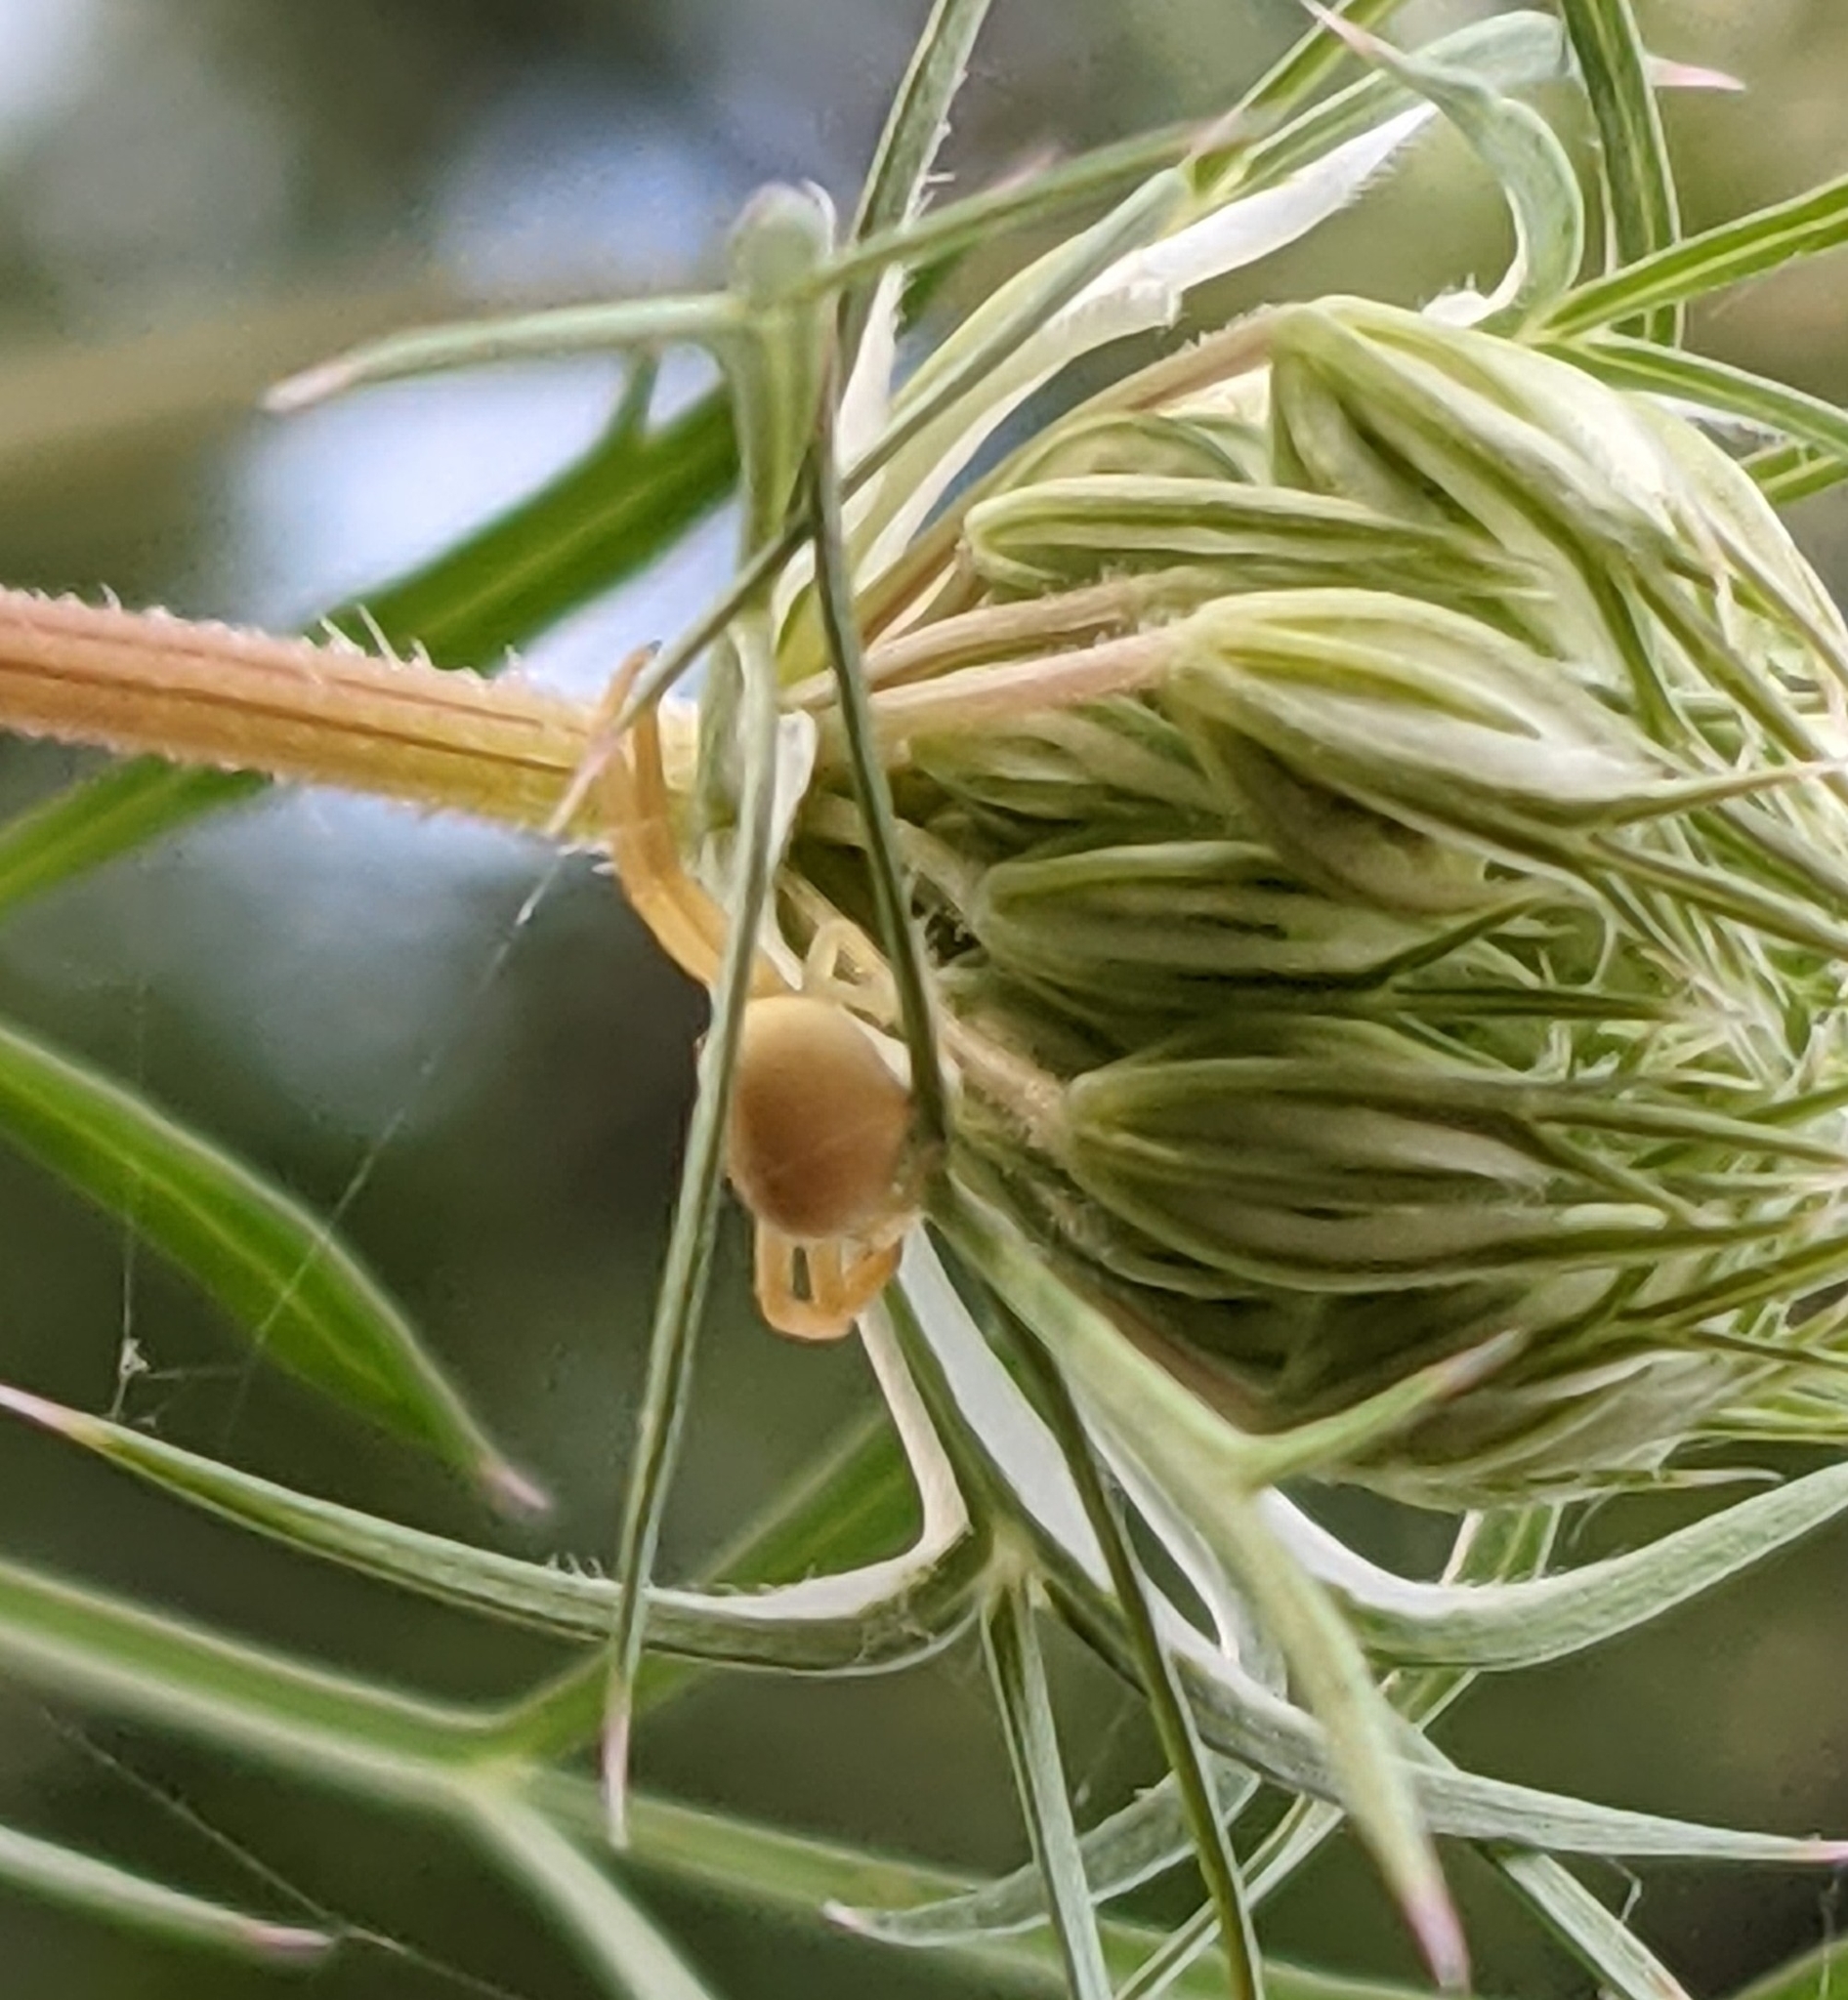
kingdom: Animalia
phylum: Arthropoda
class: Arachnida
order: Araneae
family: Thomisidae
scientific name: Thomisidae
